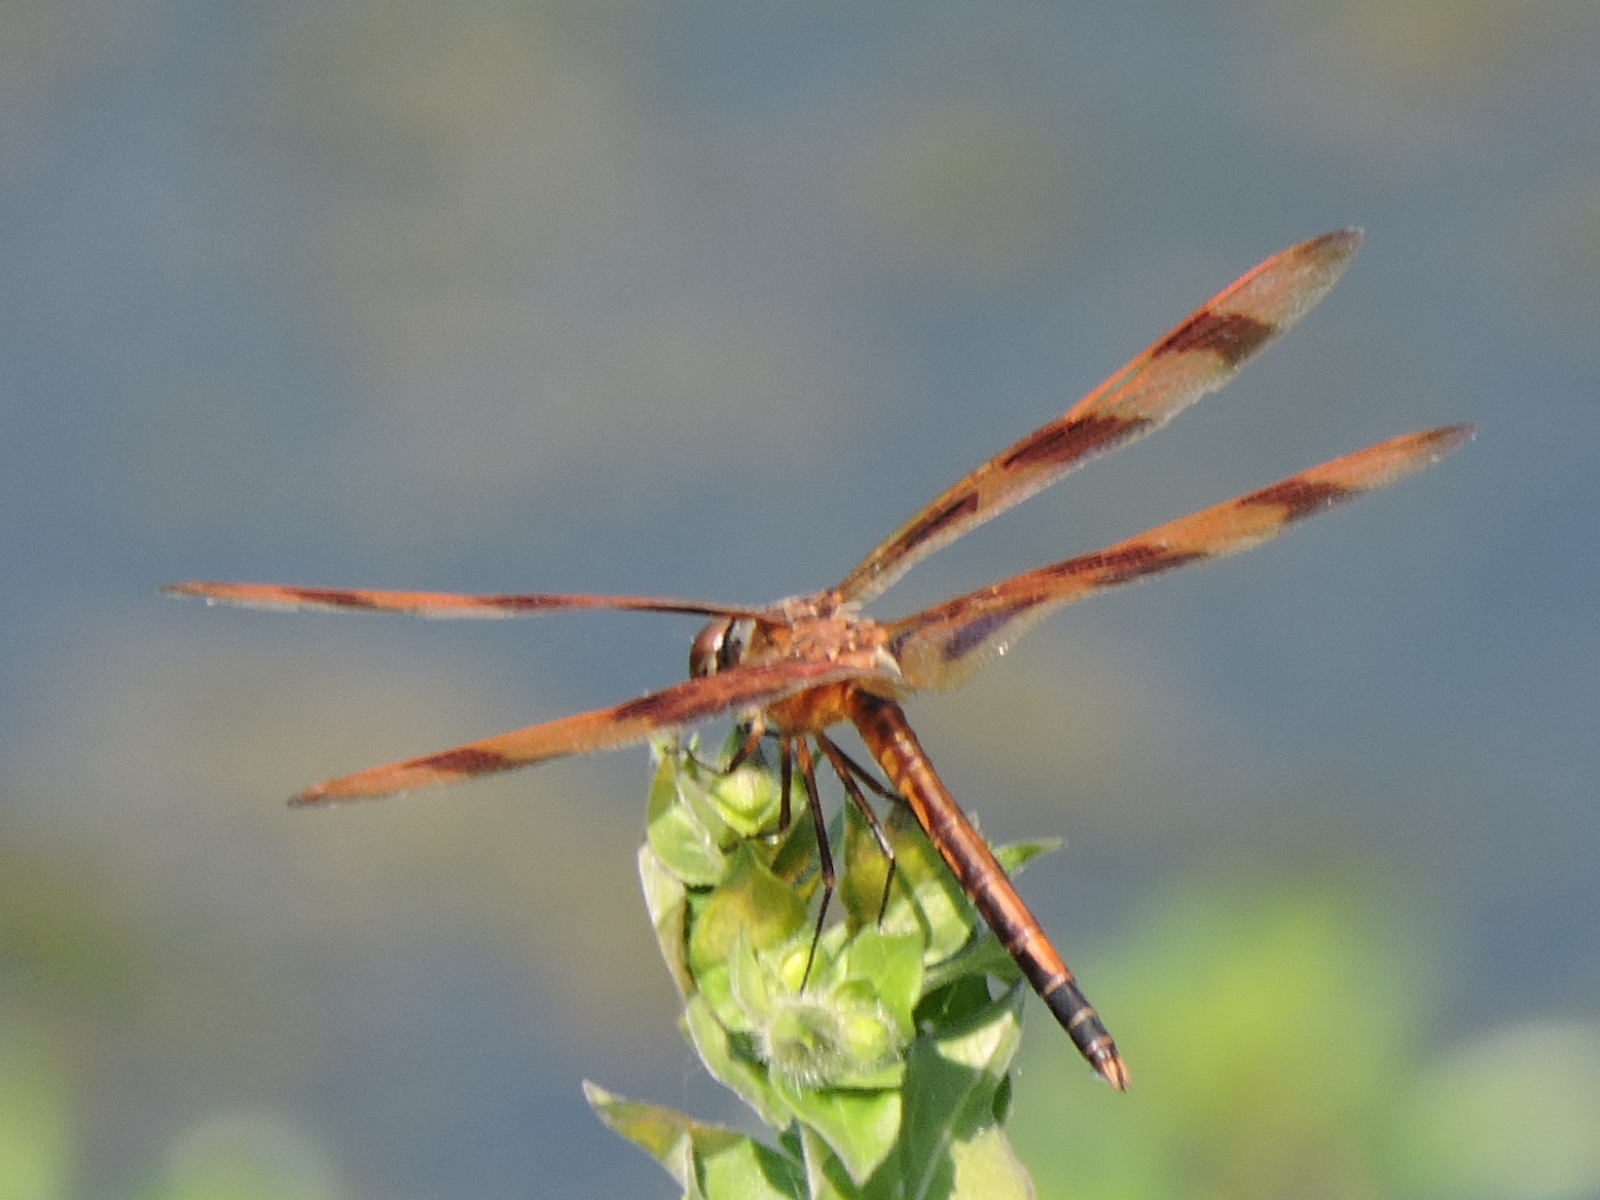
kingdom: Animalia
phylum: Arthropoda
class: Insecta
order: Odonata
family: Libellulidae
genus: Celithemis
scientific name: Celithemis eponina
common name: Halloween pennant
